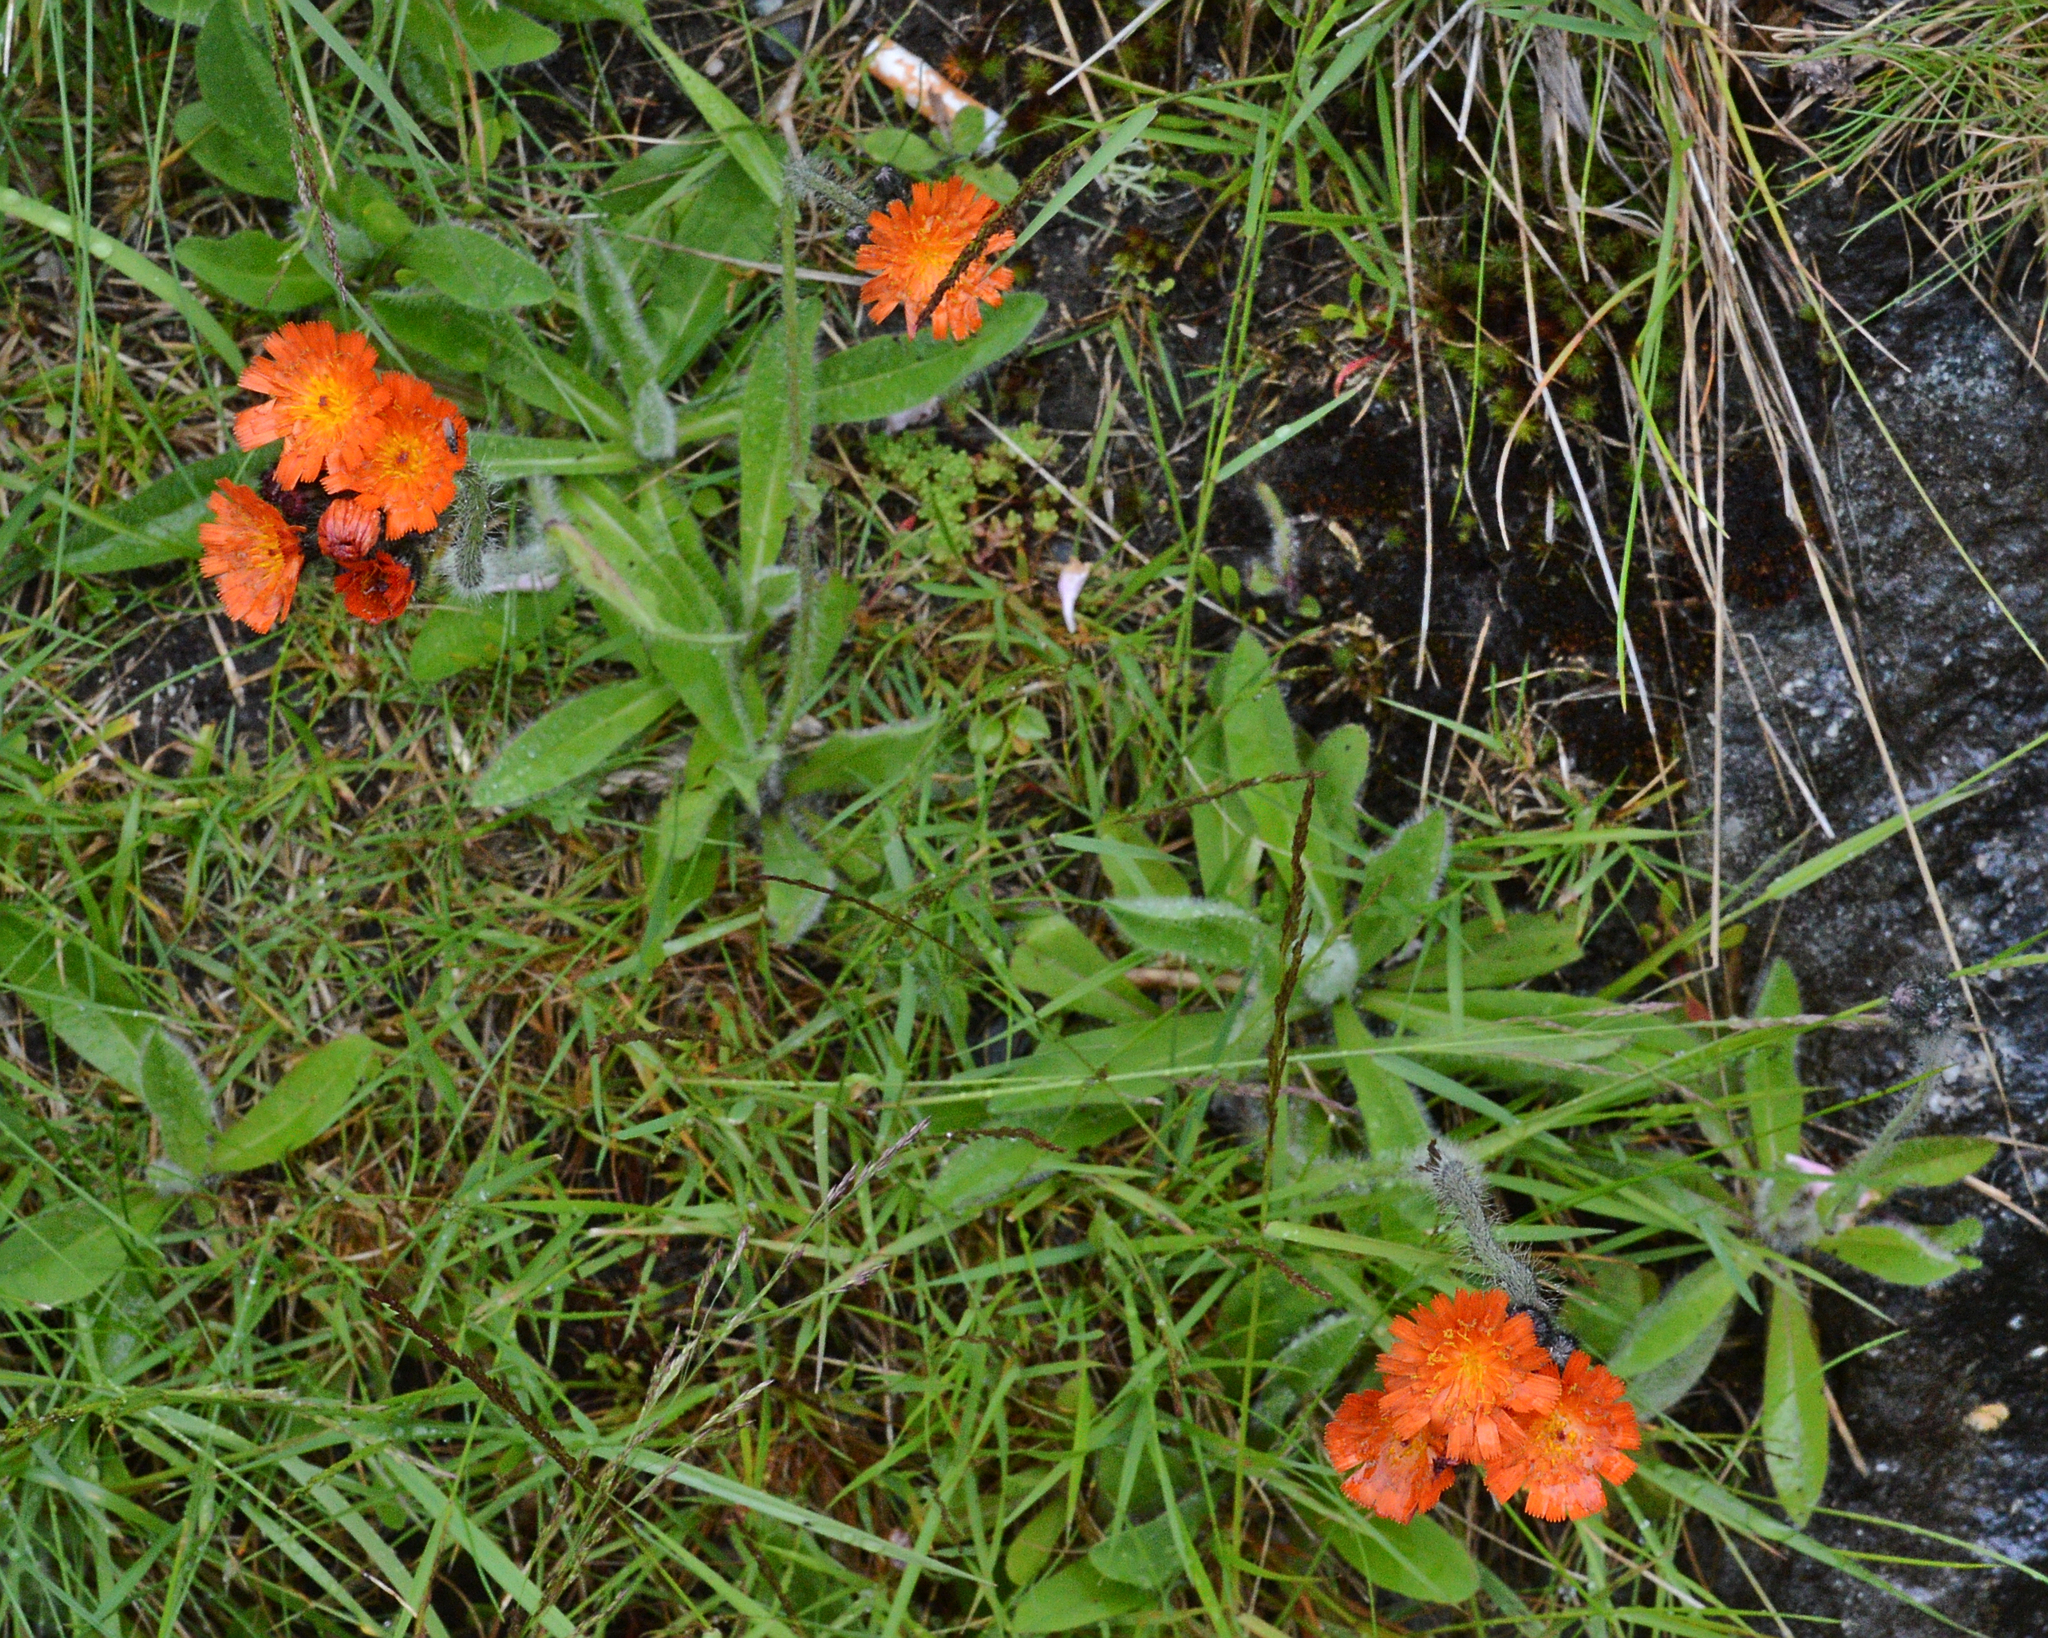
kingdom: Plantae
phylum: Tracheophyta
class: Magnoliopsida
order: Asterales
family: Asteraceae
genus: Pilosella
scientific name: Pilosella aurantiaca
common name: Fox-and-cubs
